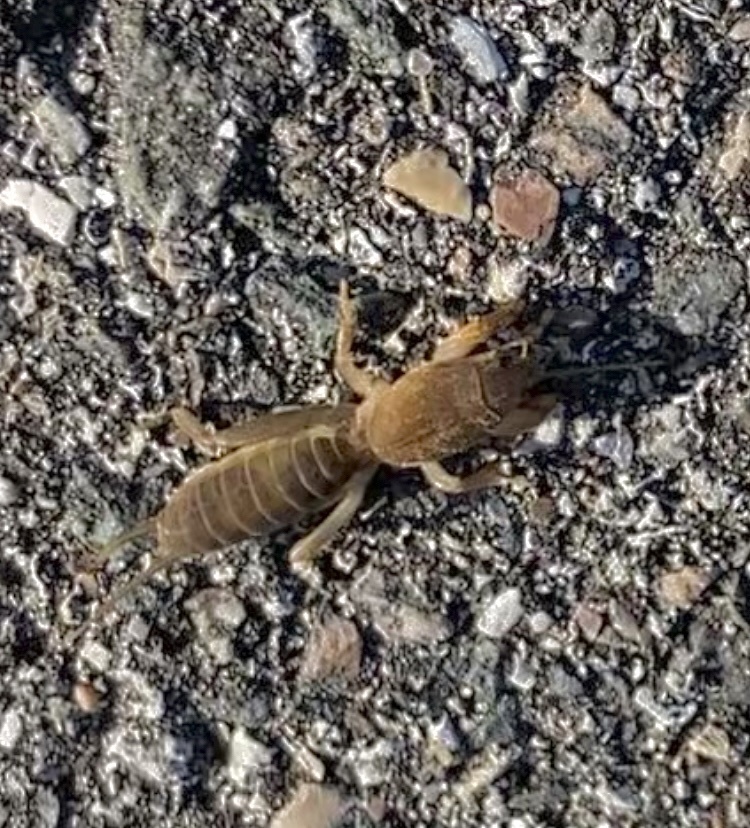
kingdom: Animalia
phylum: Arthropoda
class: Insecta
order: Orthoptera
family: Gryllotalpidae
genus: Neocurtilla
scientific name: Neocurtilla hexadactyla
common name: Northern mole cricket
